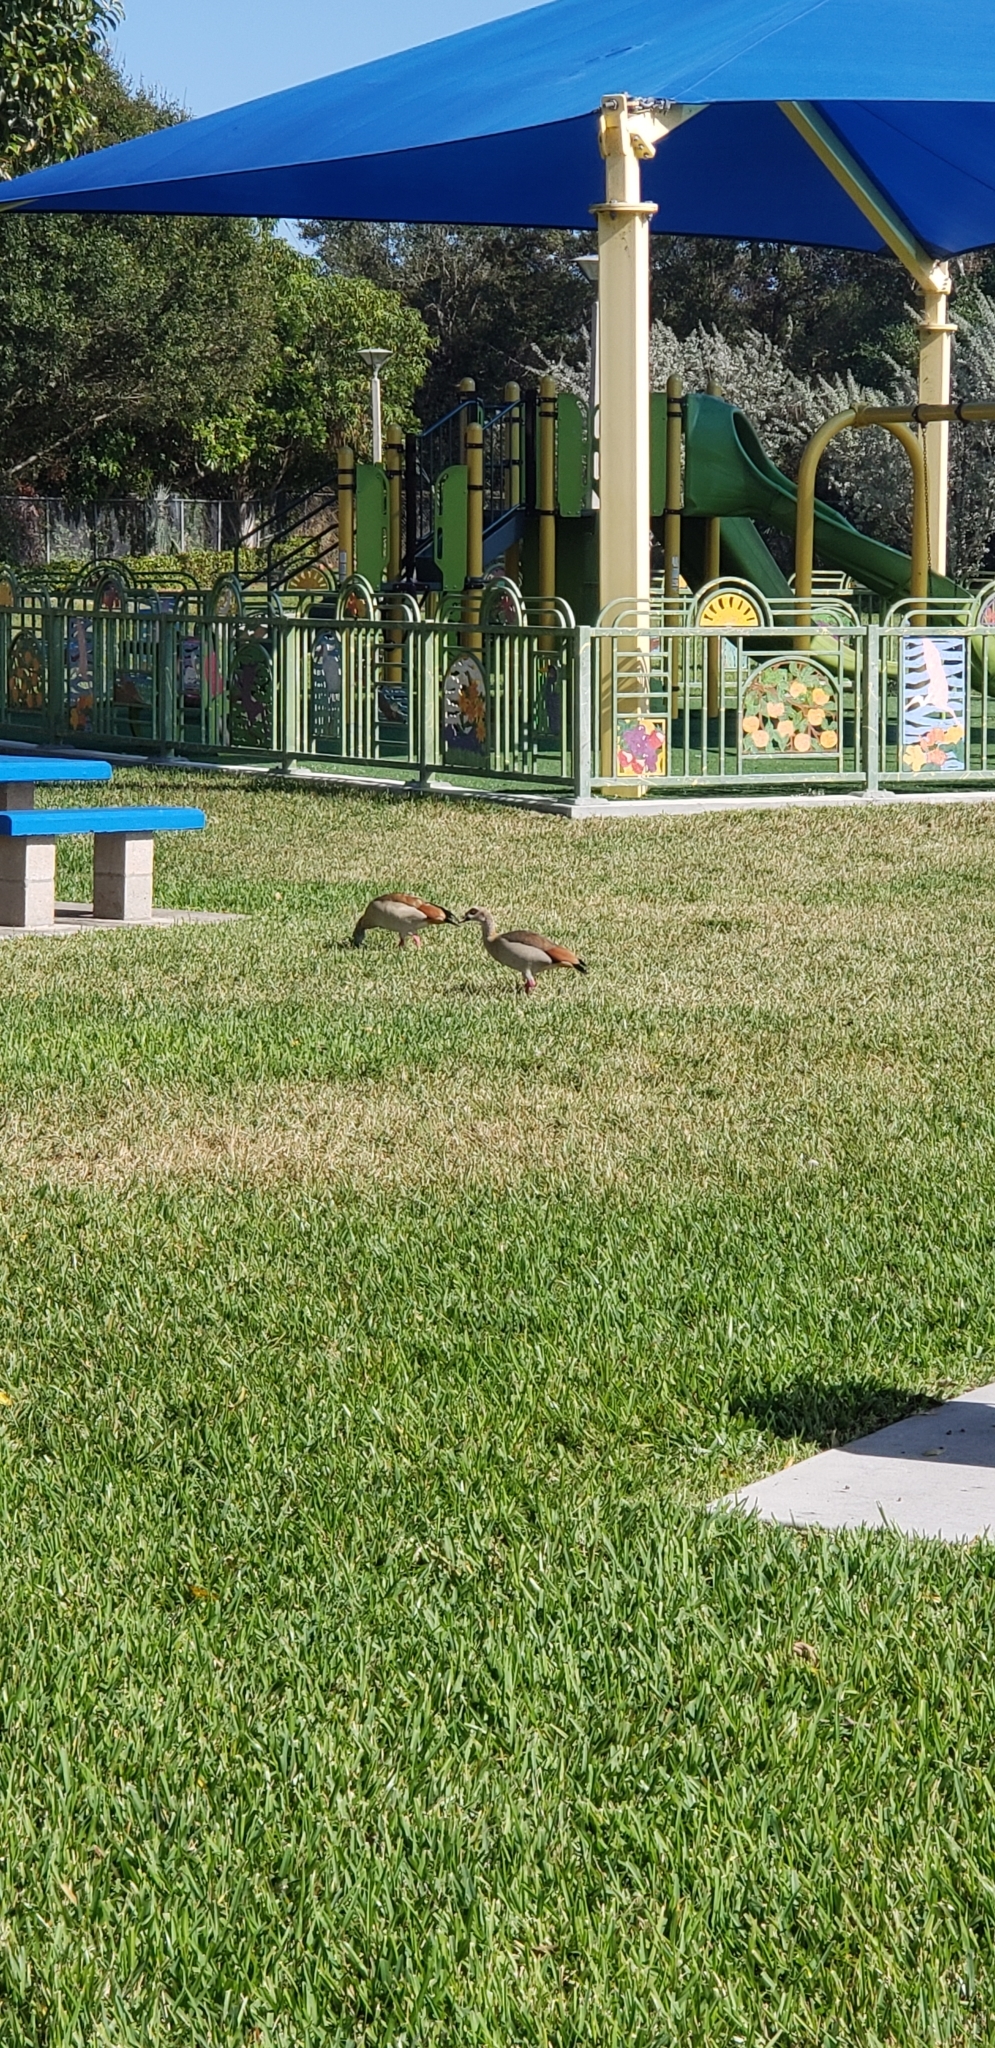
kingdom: Animalia
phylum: Chordata
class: Aves
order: Anseriformes
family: Anatidae
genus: Alopochen
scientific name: Alopochen aegyptiaca
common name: Egyptian goose
